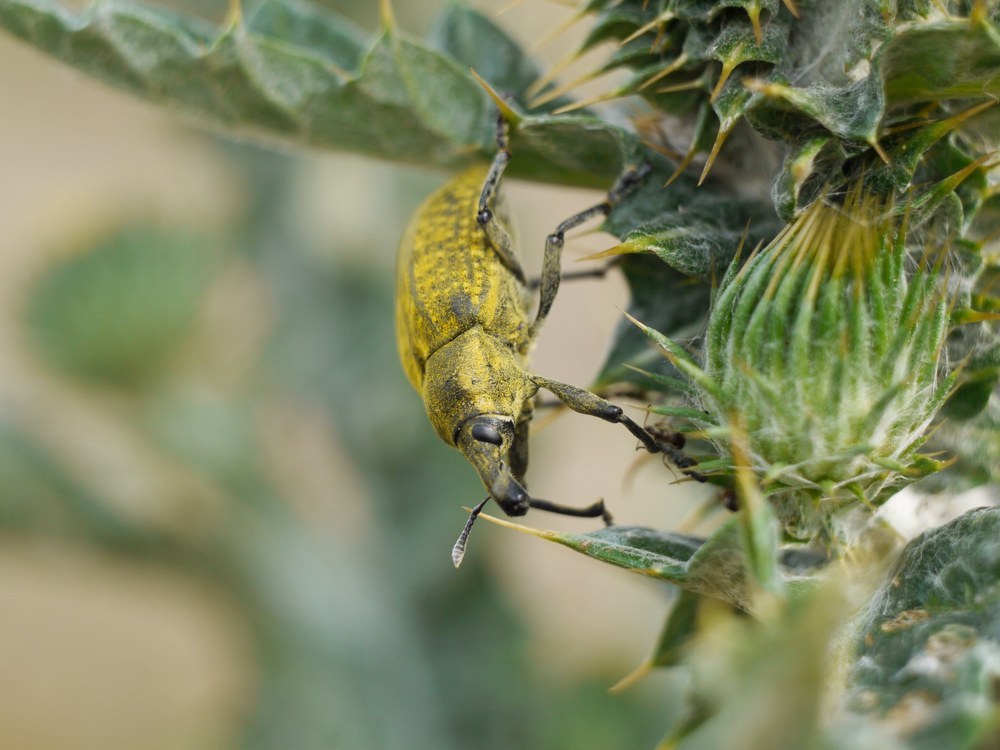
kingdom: Animalia
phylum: Arthropoda
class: Insecta
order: Coleoptera
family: Curculionidae
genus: Larinus
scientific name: Larinus latus
